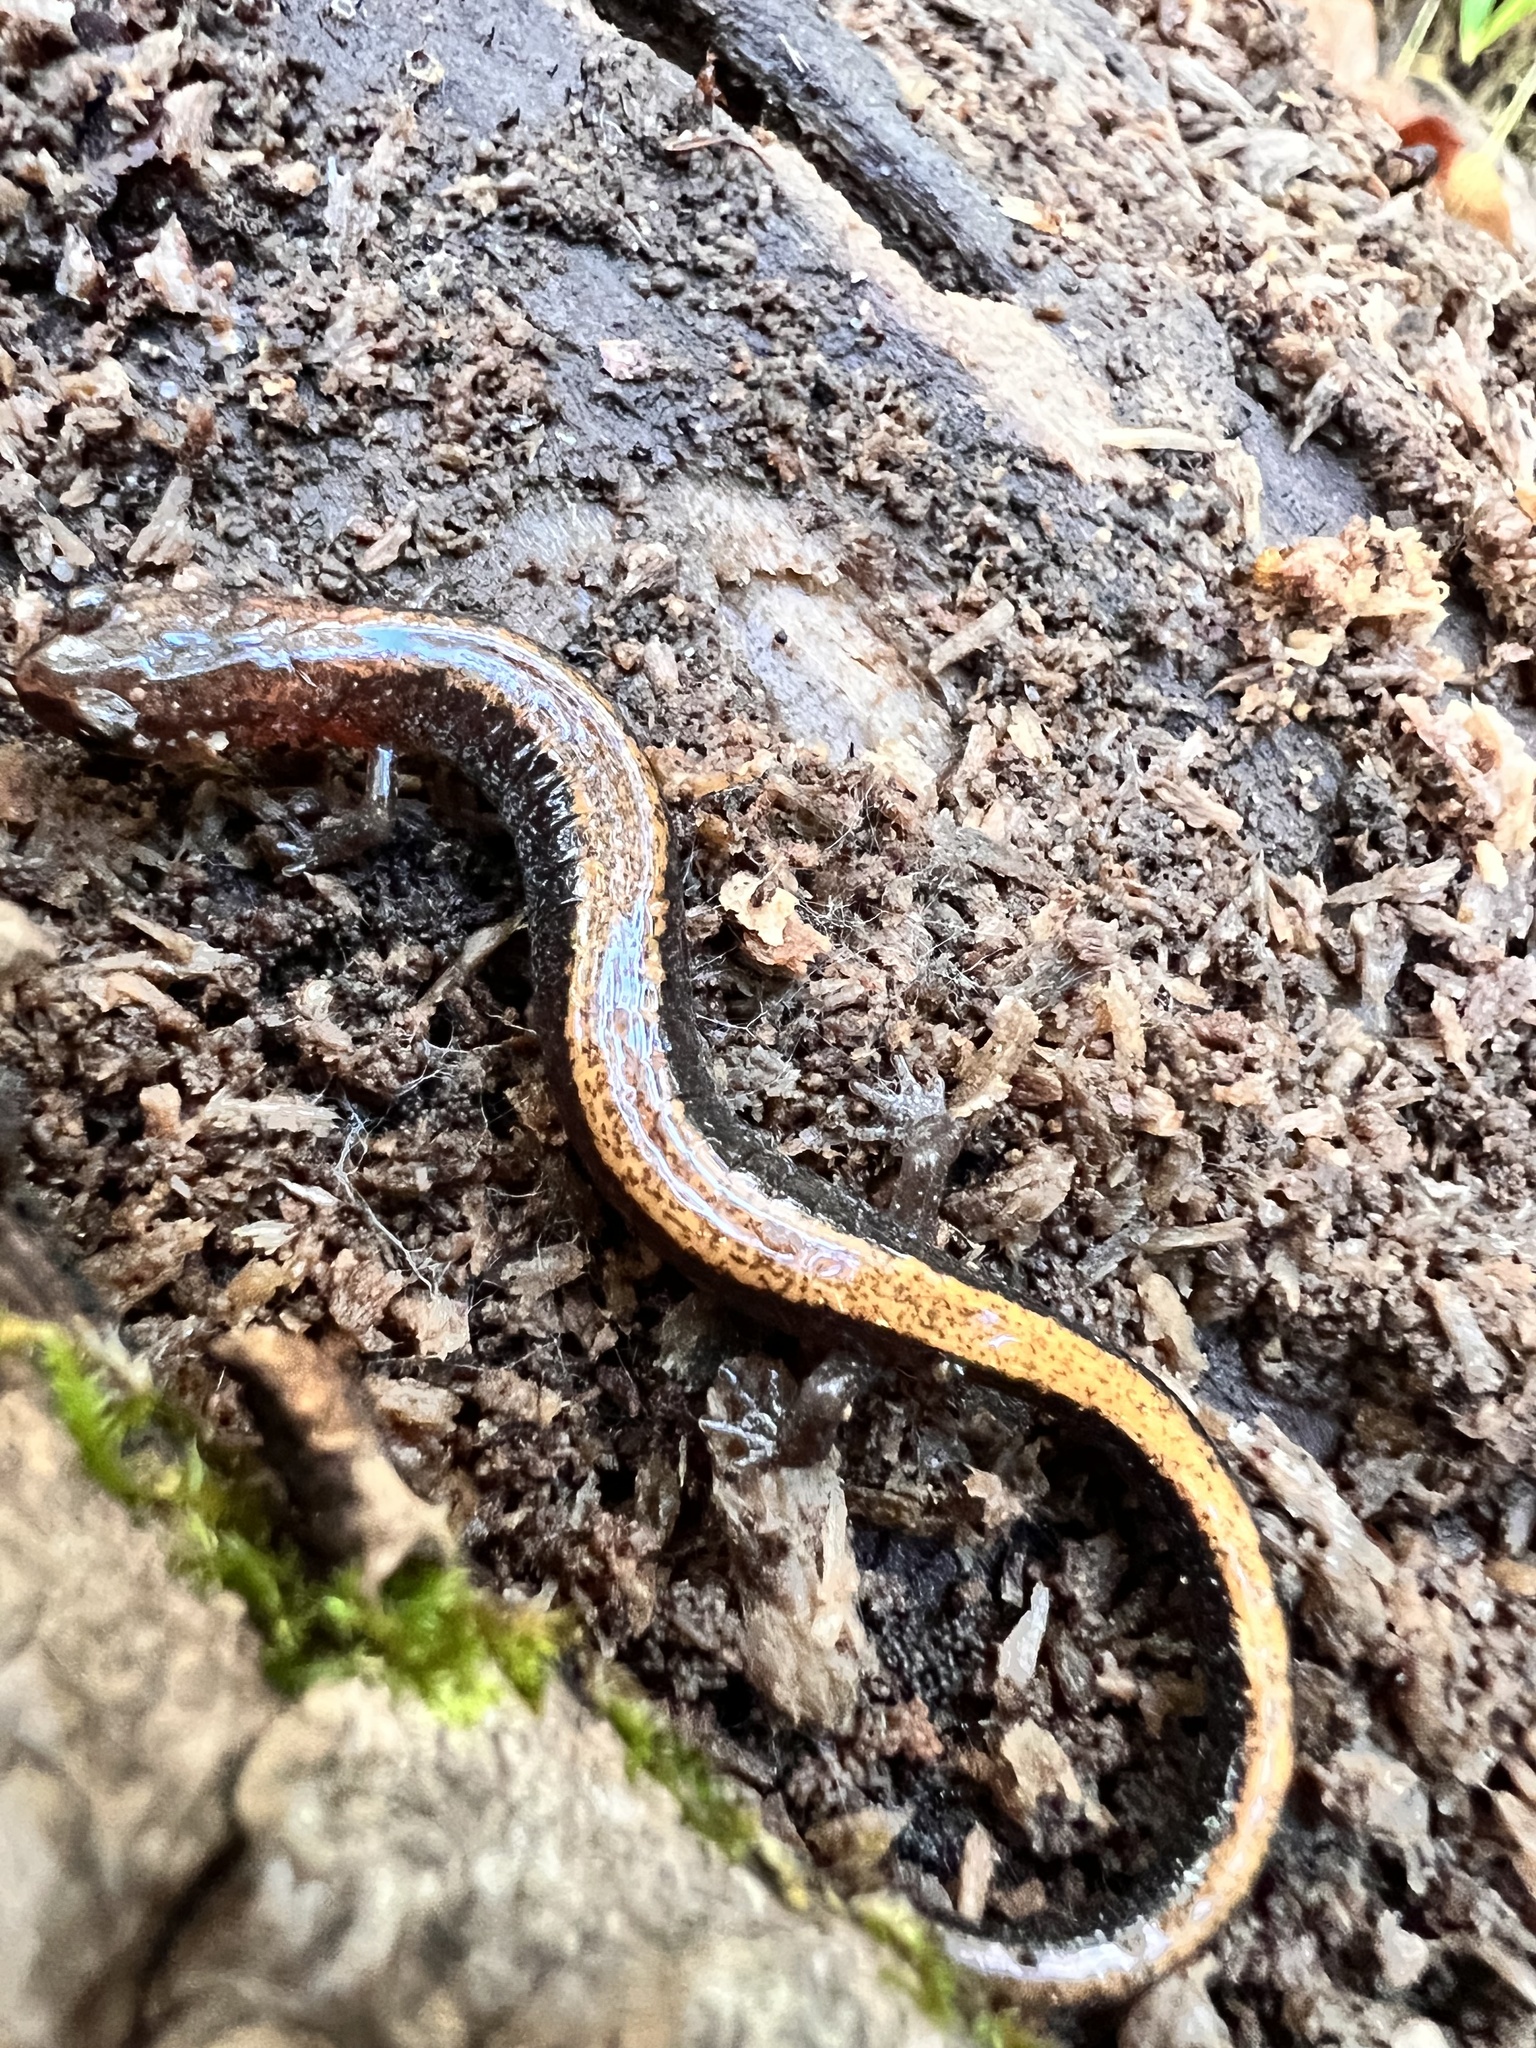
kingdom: Animalia
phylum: Chordata
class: Amphibia
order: Caudata
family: Plethodontidae
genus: Plethodon
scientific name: Plethodon cinereus
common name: Redback salamander
